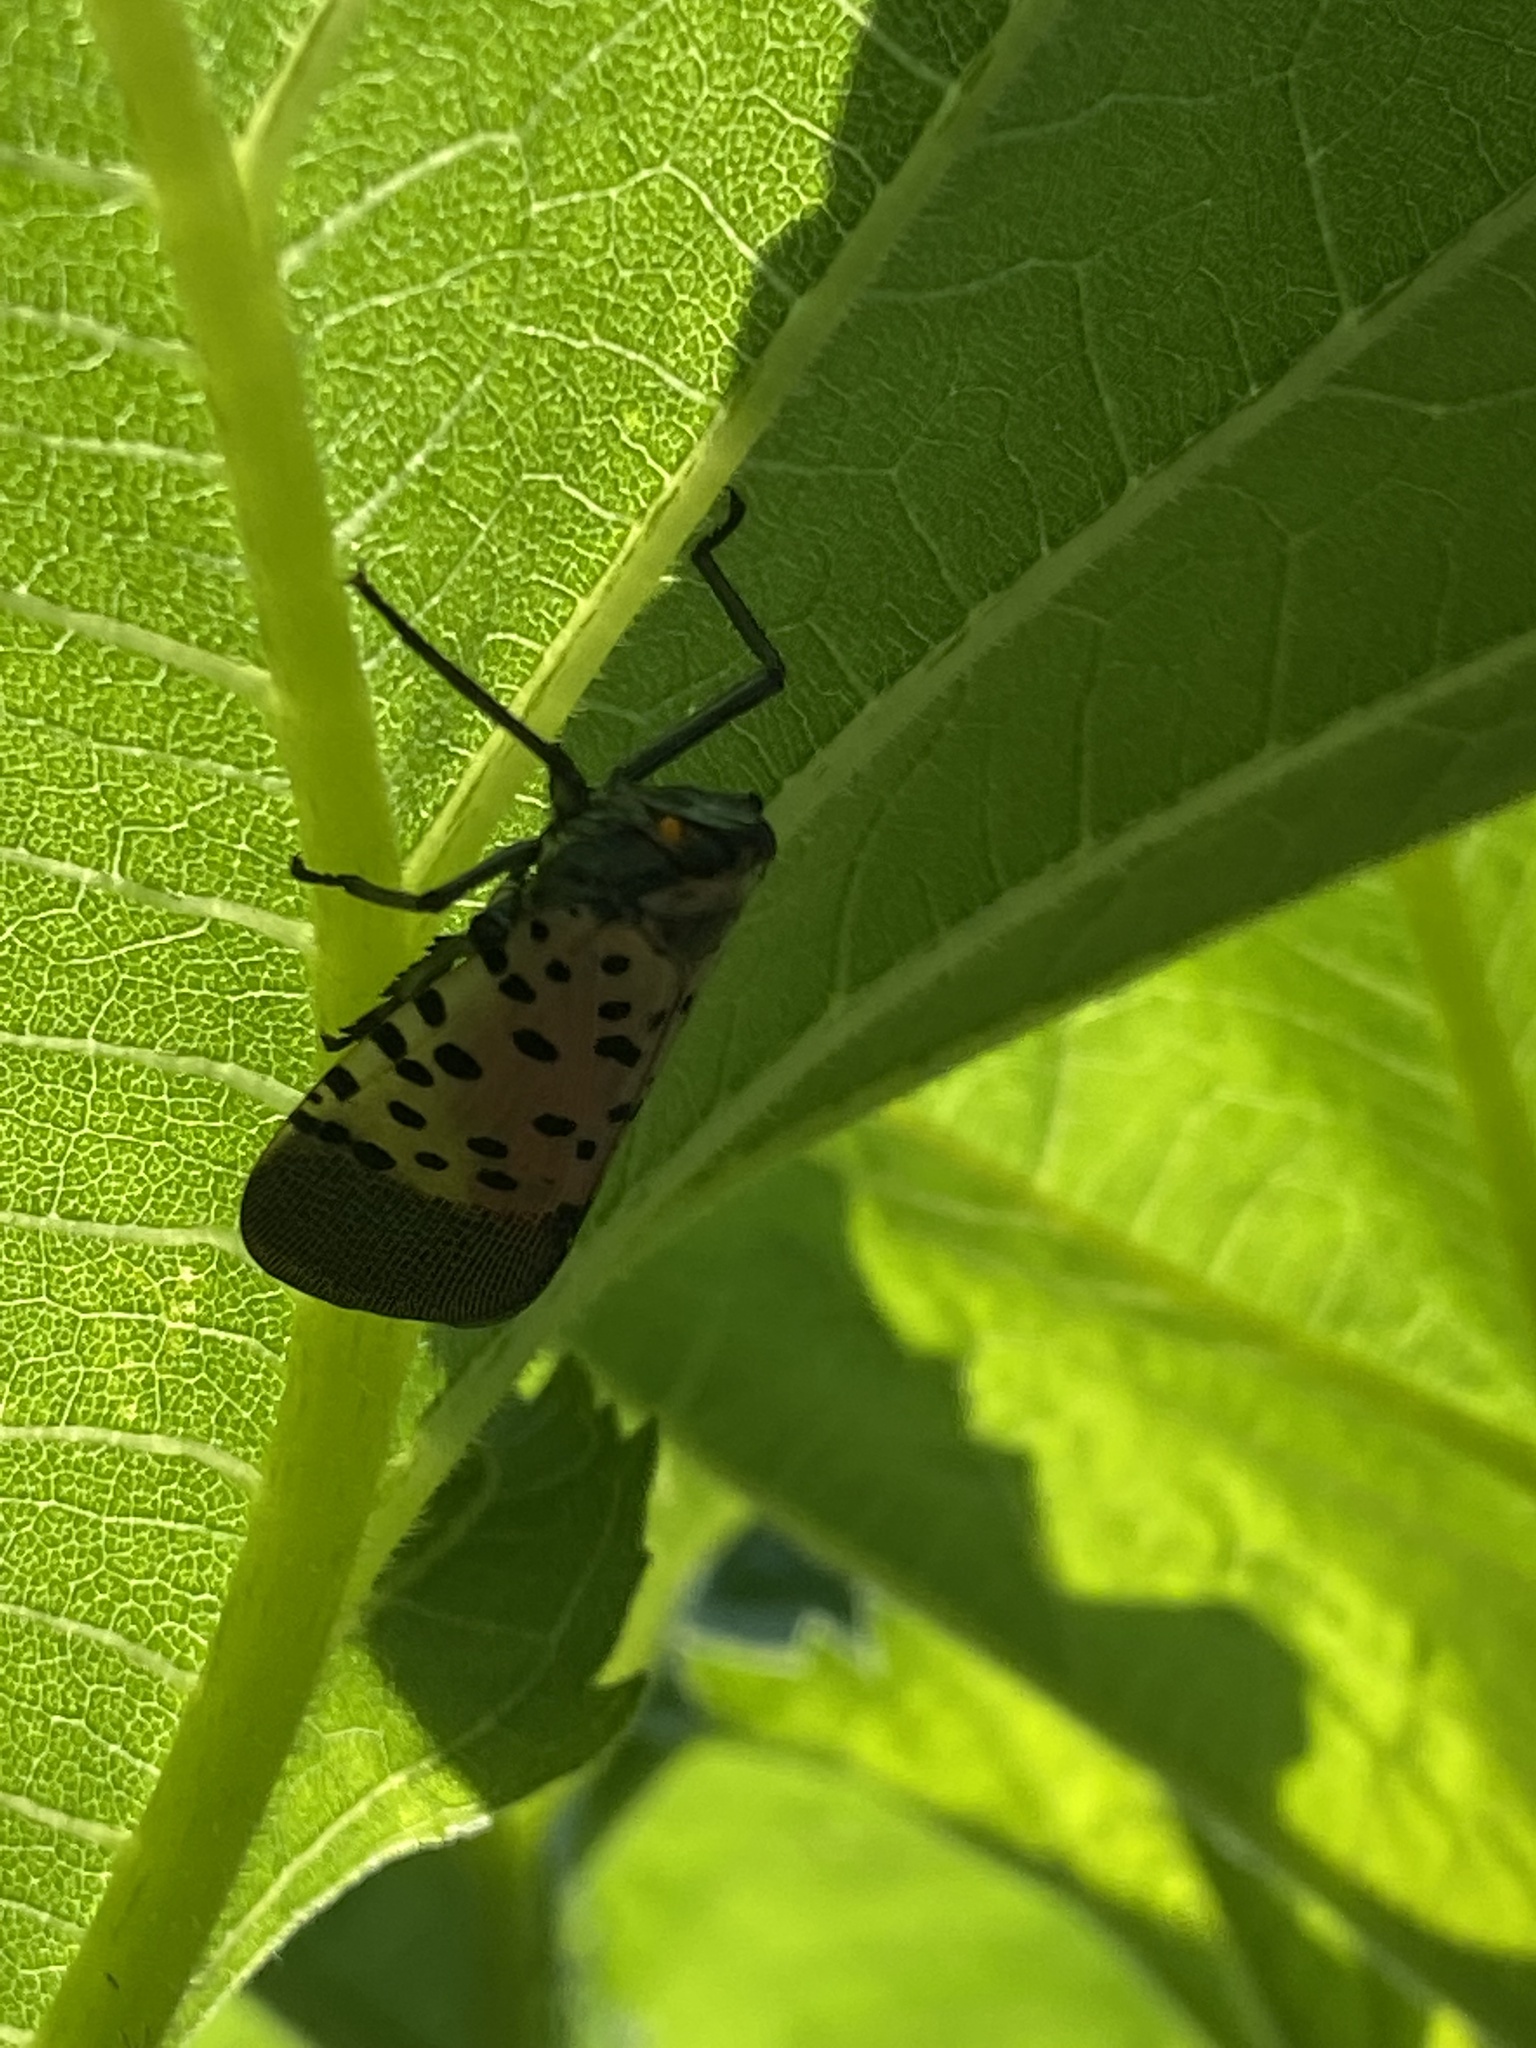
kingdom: Animalia
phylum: Arthropoda
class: Insecta
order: Hemiptera
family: Fulgoridae
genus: Lycorma
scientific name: Lycorma delicatula
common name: Spotted lanternfly
